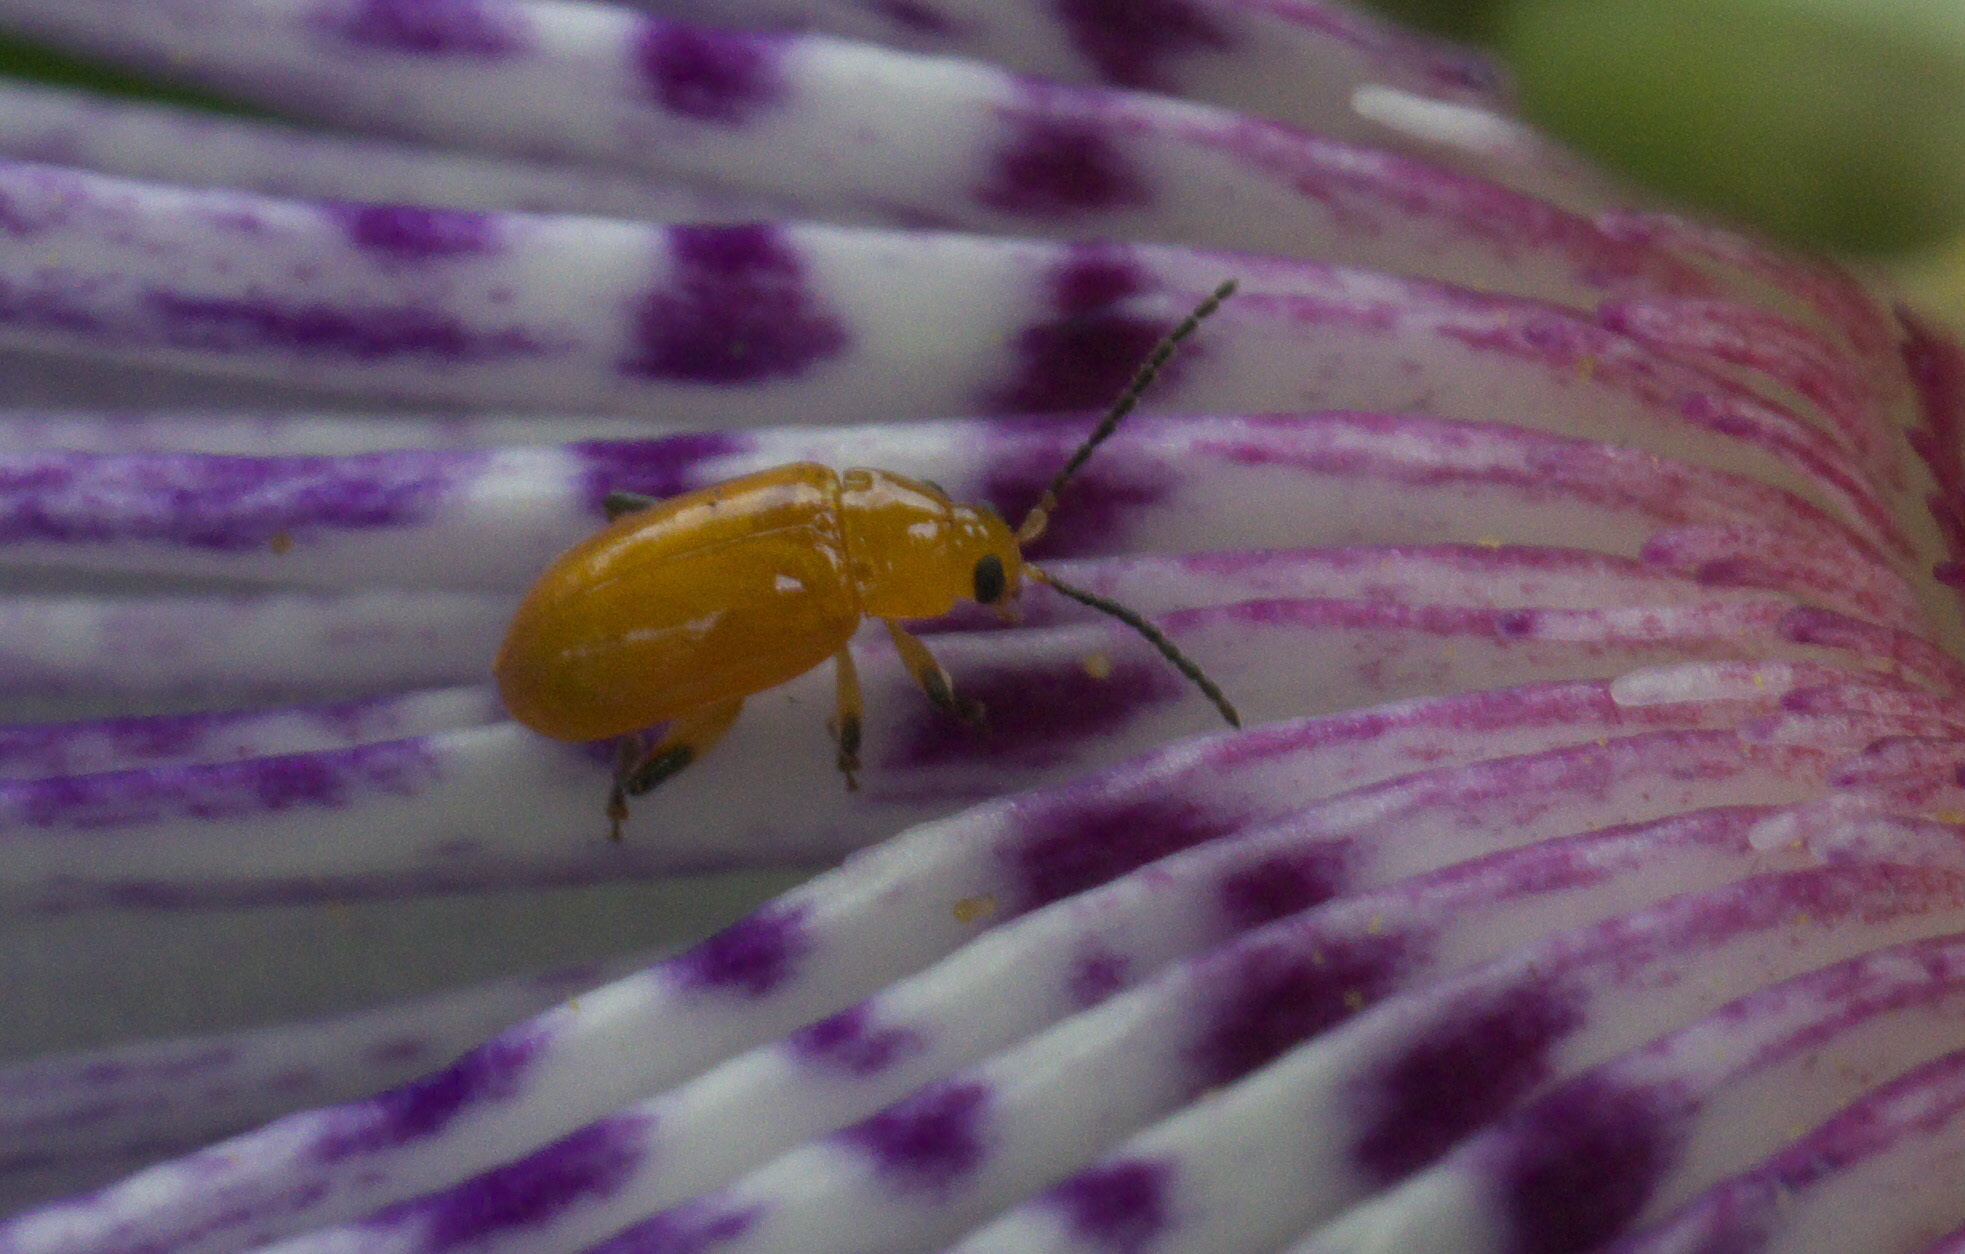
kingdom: Animalia
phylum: Arthropoda
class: Insecta
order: Coleoptera
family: Chrysomelidae
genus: Parchicola
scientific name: Parchicola tibialis
